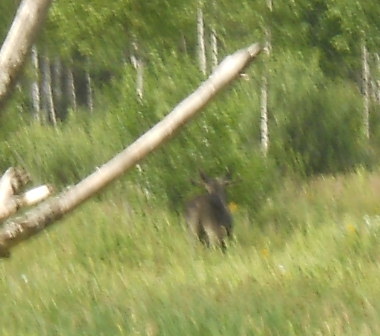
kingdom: Animalia
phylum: Chordata
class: Mammalia
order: Artiodactyla
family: Cervidae
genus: Alces
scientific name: Alces alces
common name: Moose
